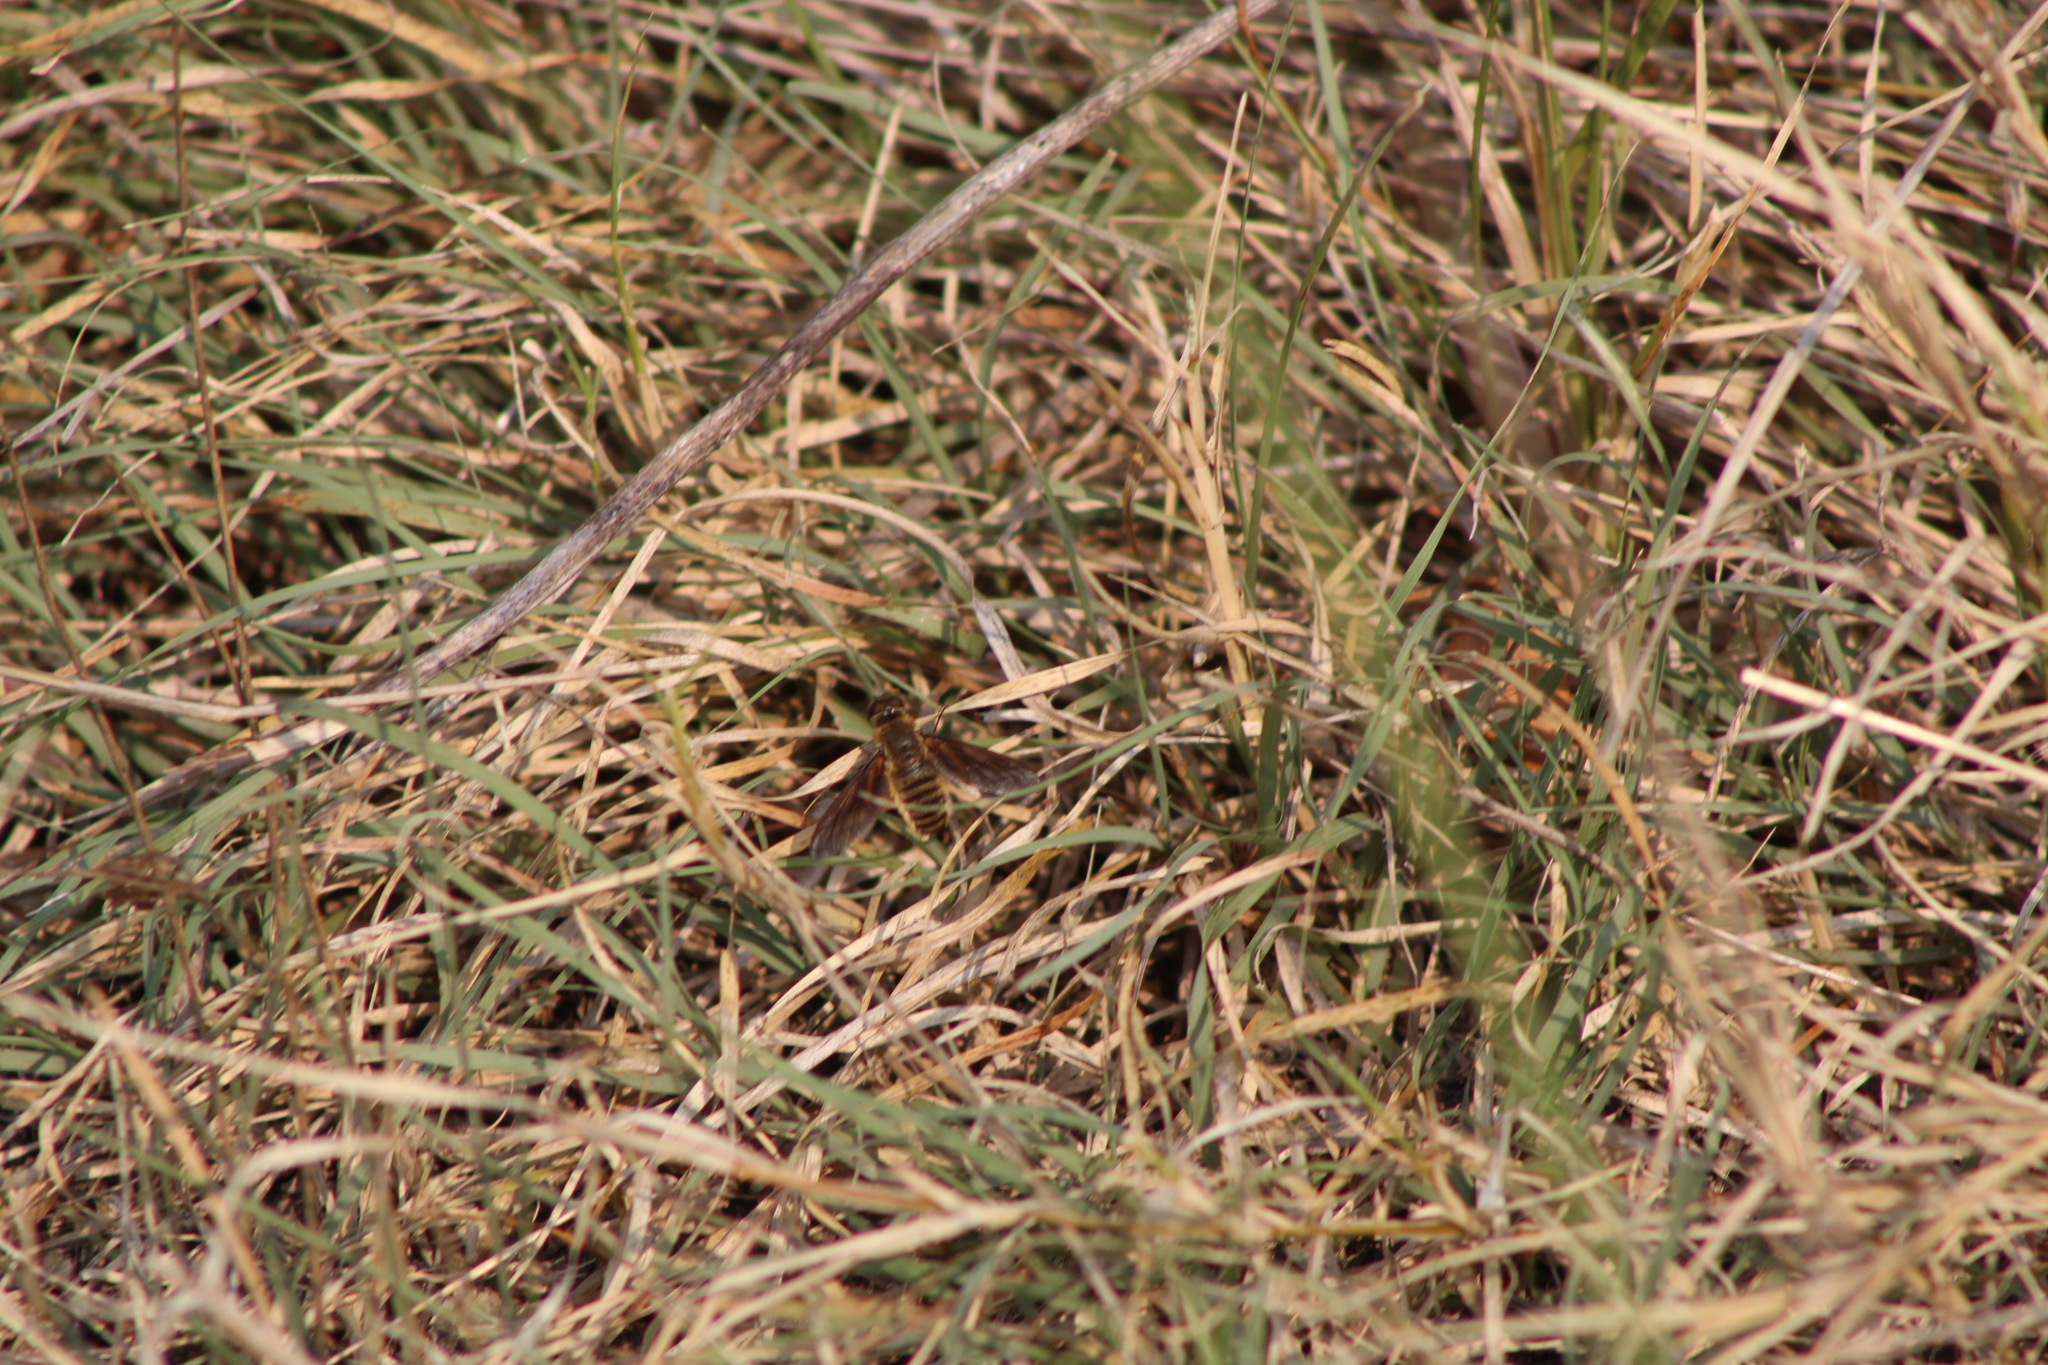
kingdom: Animalia
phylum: Arthropoda
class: Insecta
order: Diptera
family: Bombyliidae
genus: Poecilanthrax
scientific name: Poecilanthrax lucifer
